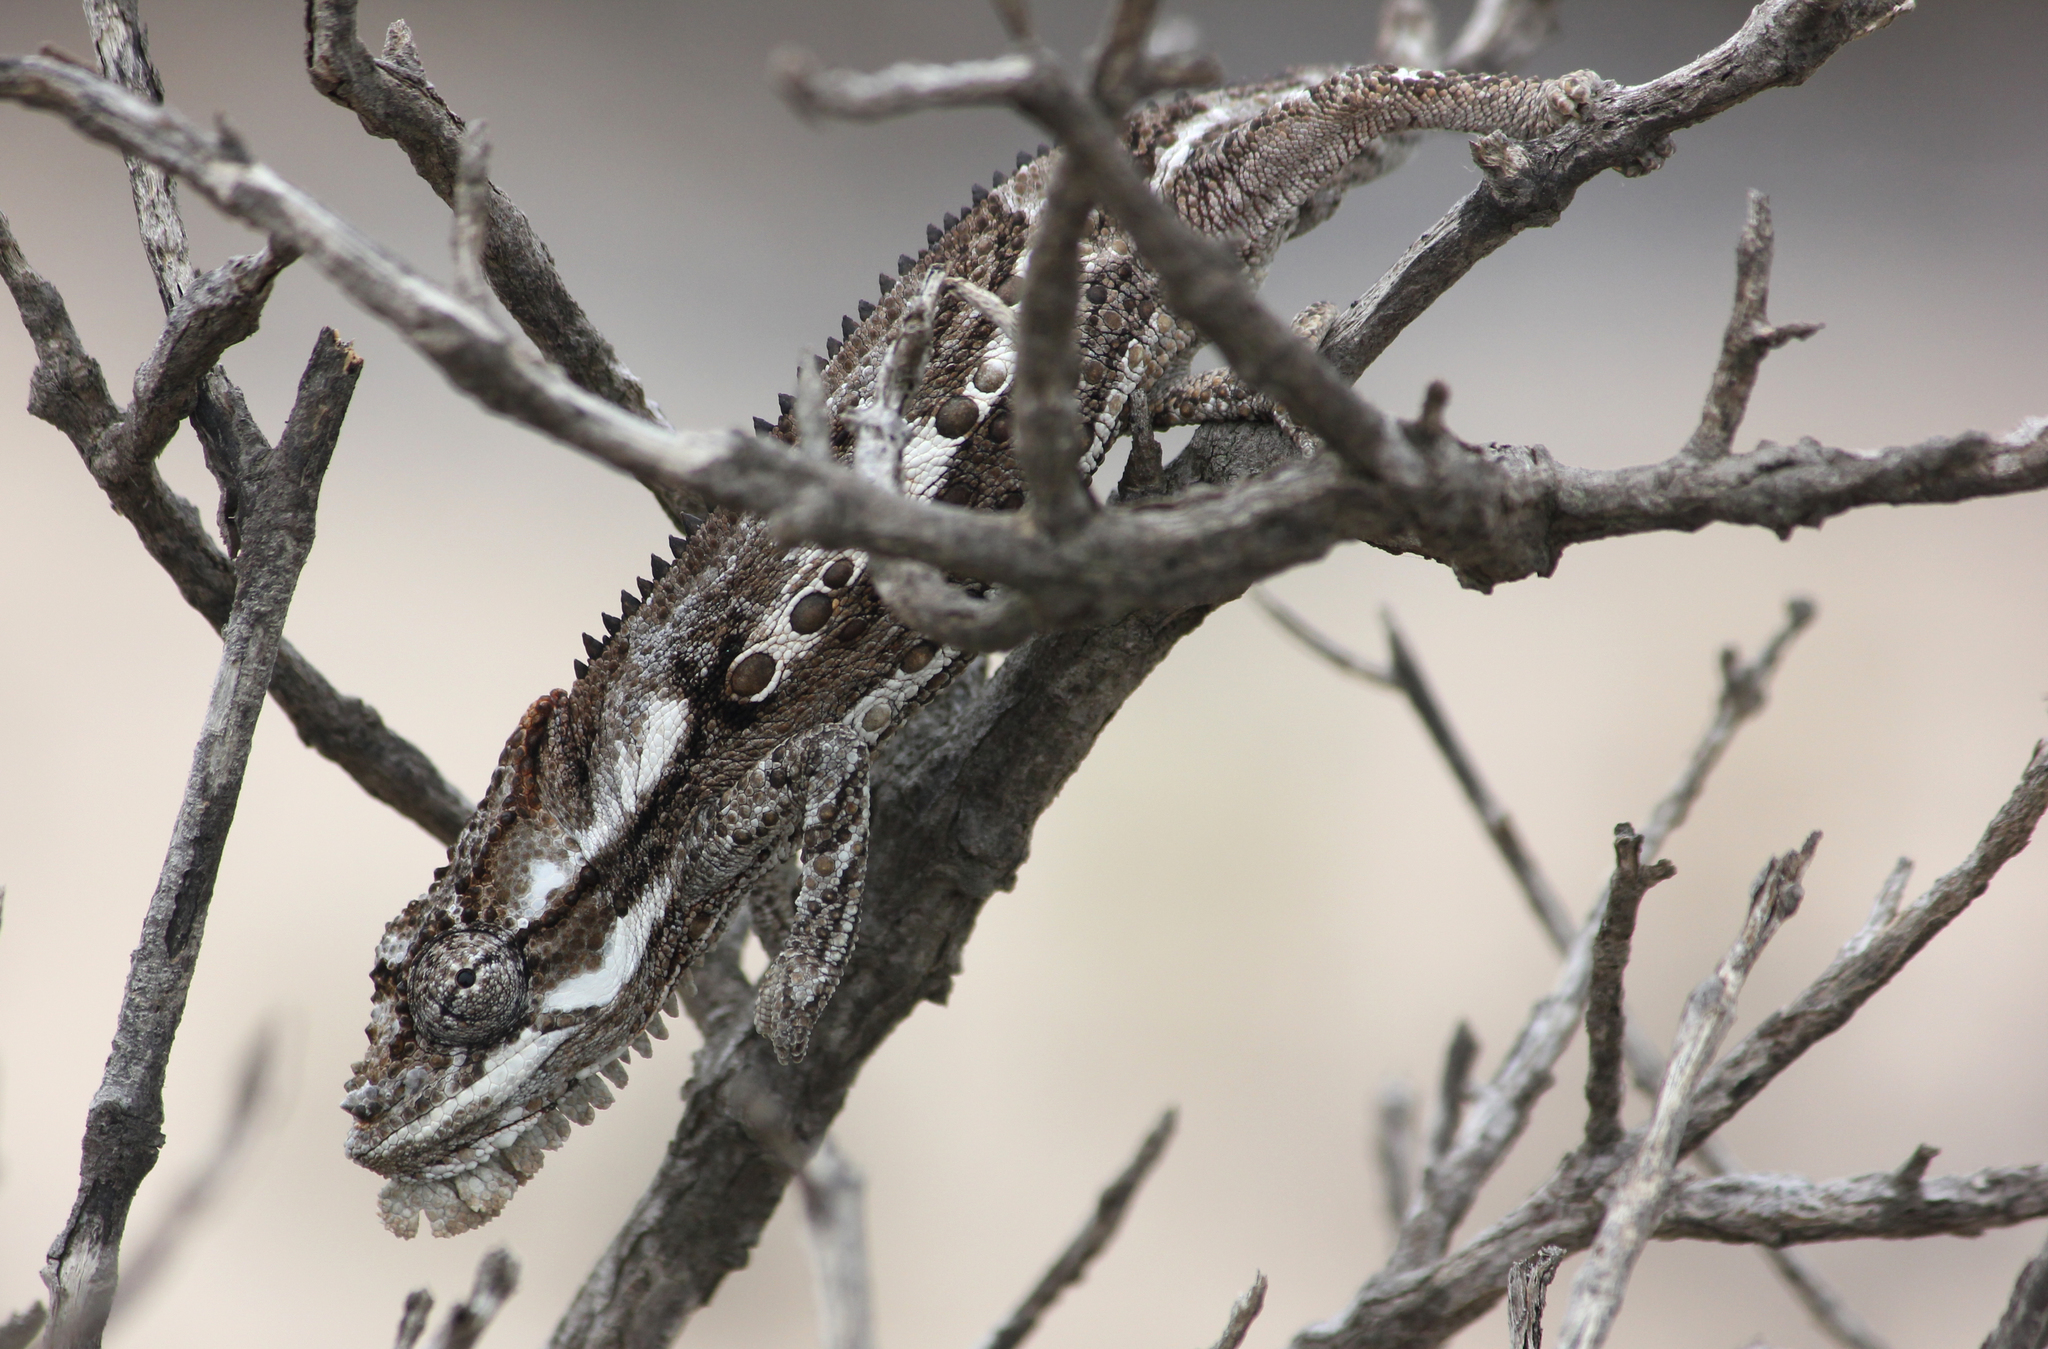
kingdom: Animalia
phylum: Chordata
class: Squamata
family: Chamaeleonidae
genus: Bradypodion
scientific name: Bradypodion occidentale
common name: Western dwarf chameleon
